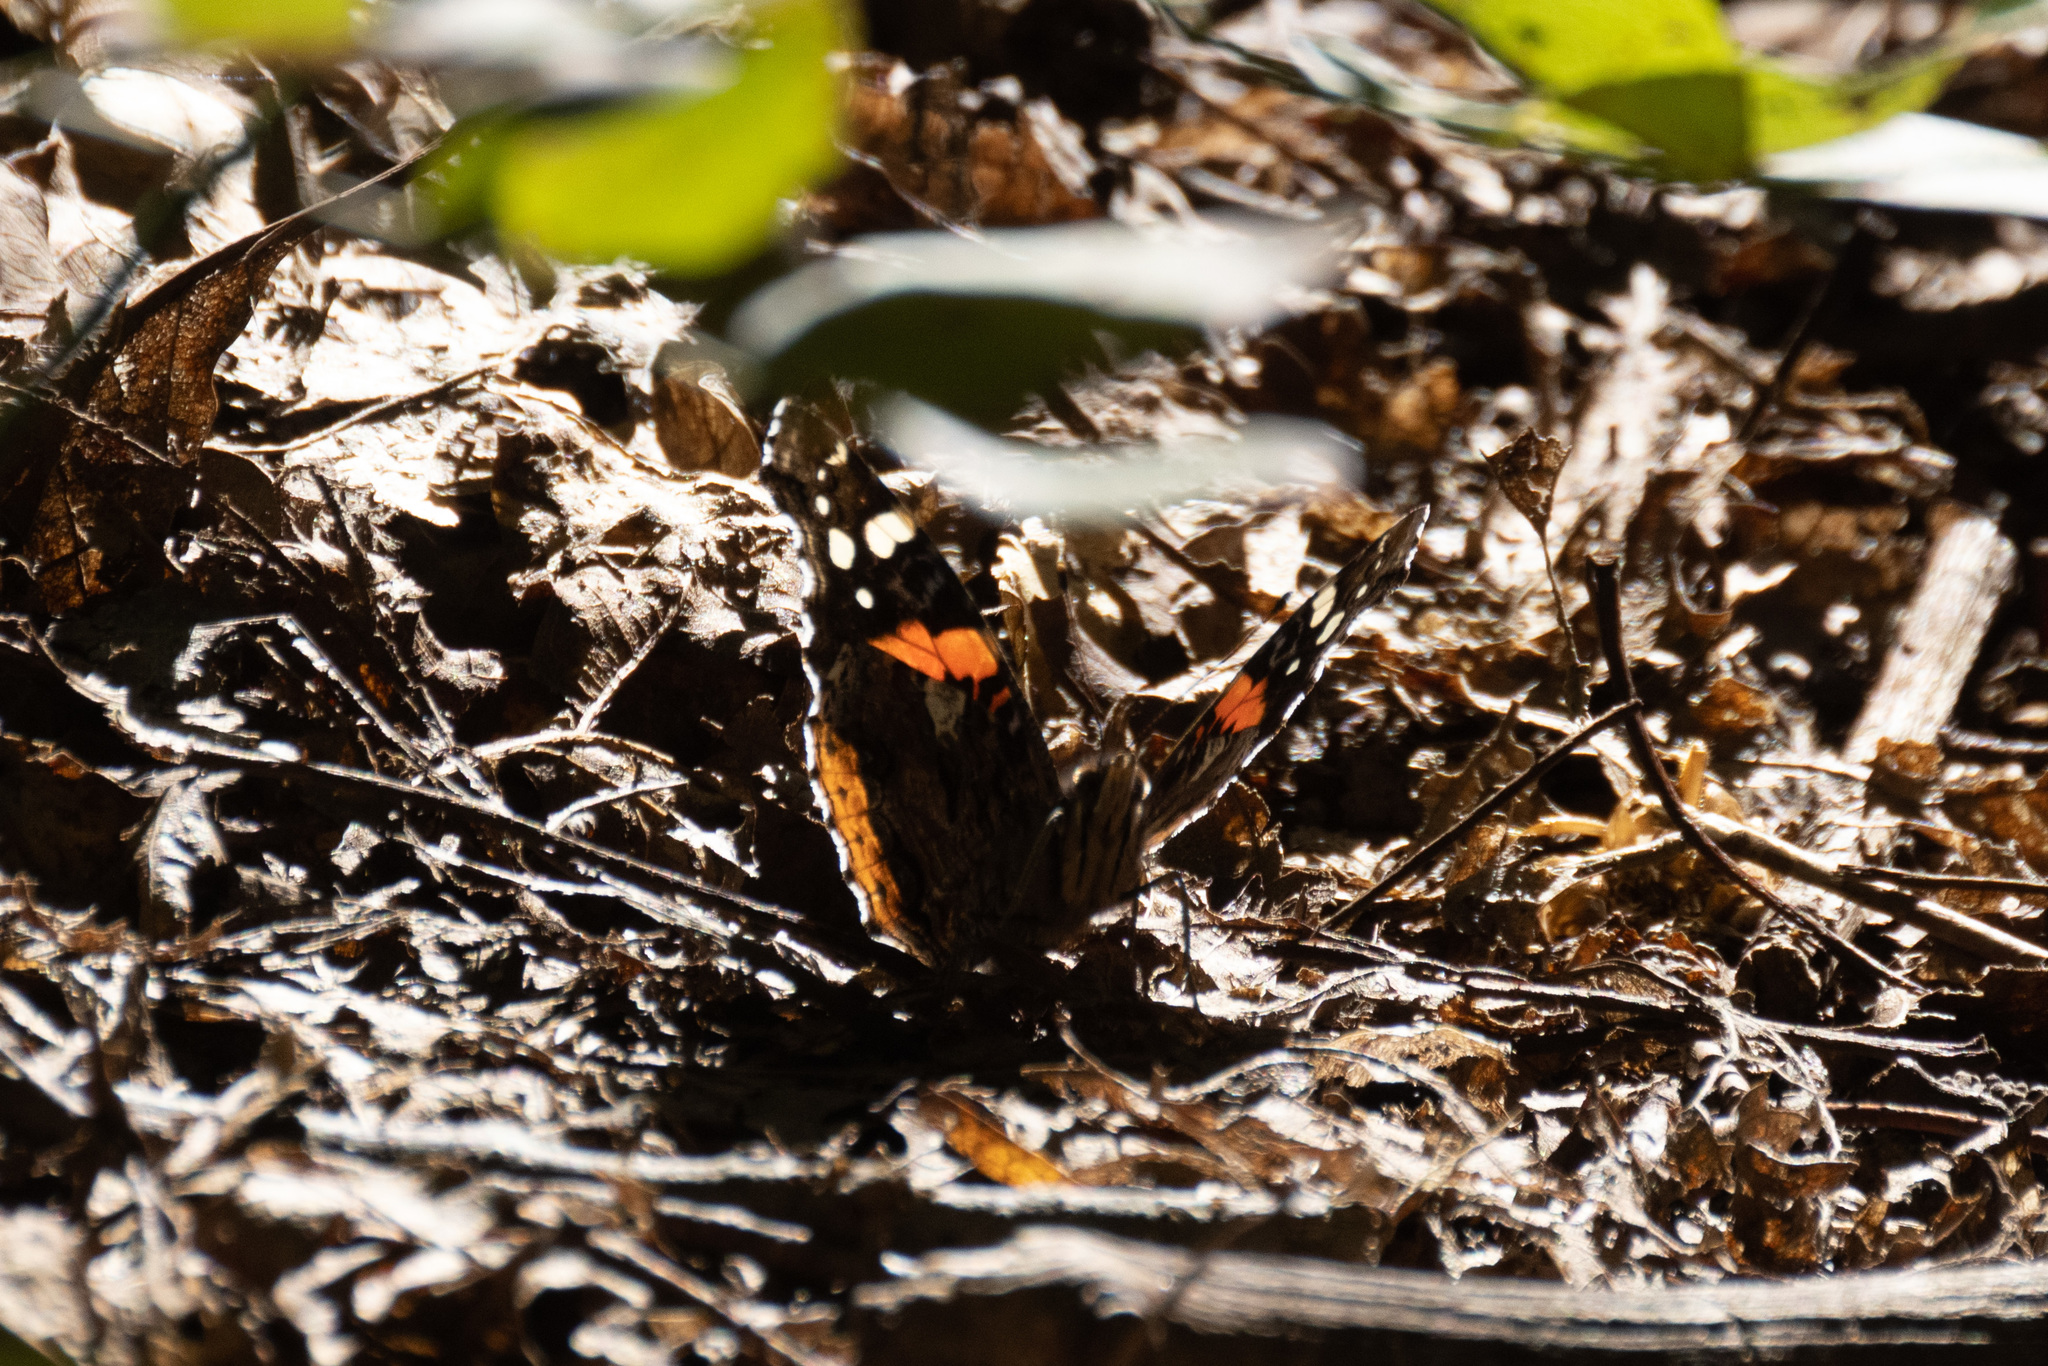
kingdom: Animalia
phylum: Arthropoda
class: Insecta
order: Lepidoptera
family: Nymphalidae
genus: Vanessa
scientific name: Vanessa atalanta
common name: Red admiral
